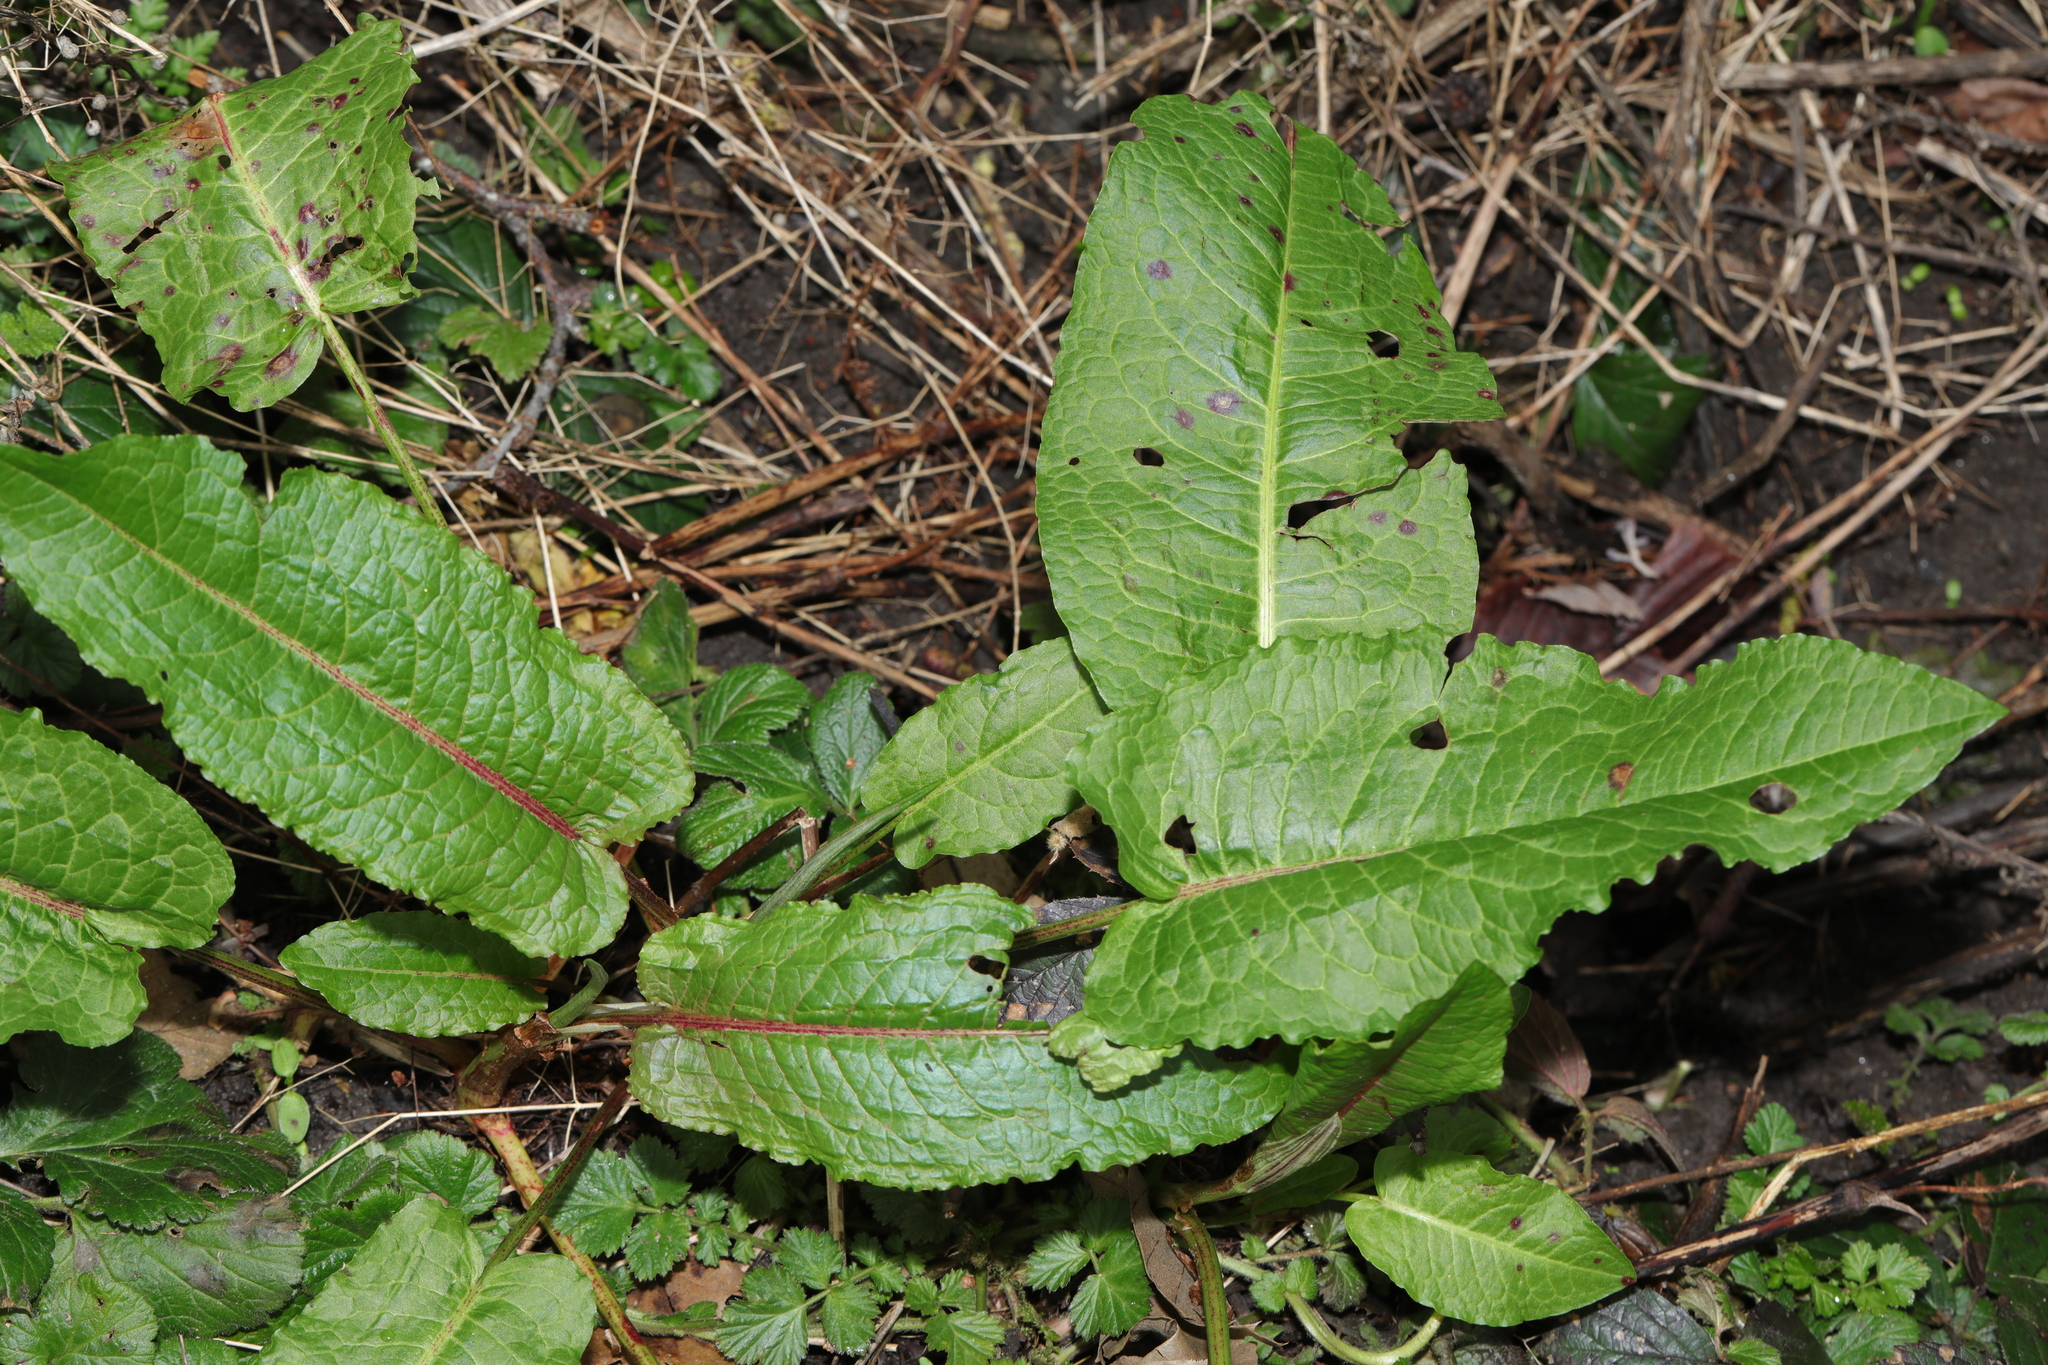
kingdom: Plantae
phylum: Tracheophyta
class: Magnoliopsida
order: Caryophyllales
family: Polygonaceae
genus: Rumex
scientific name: Rumex obtusifolius
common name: Bitter dock
